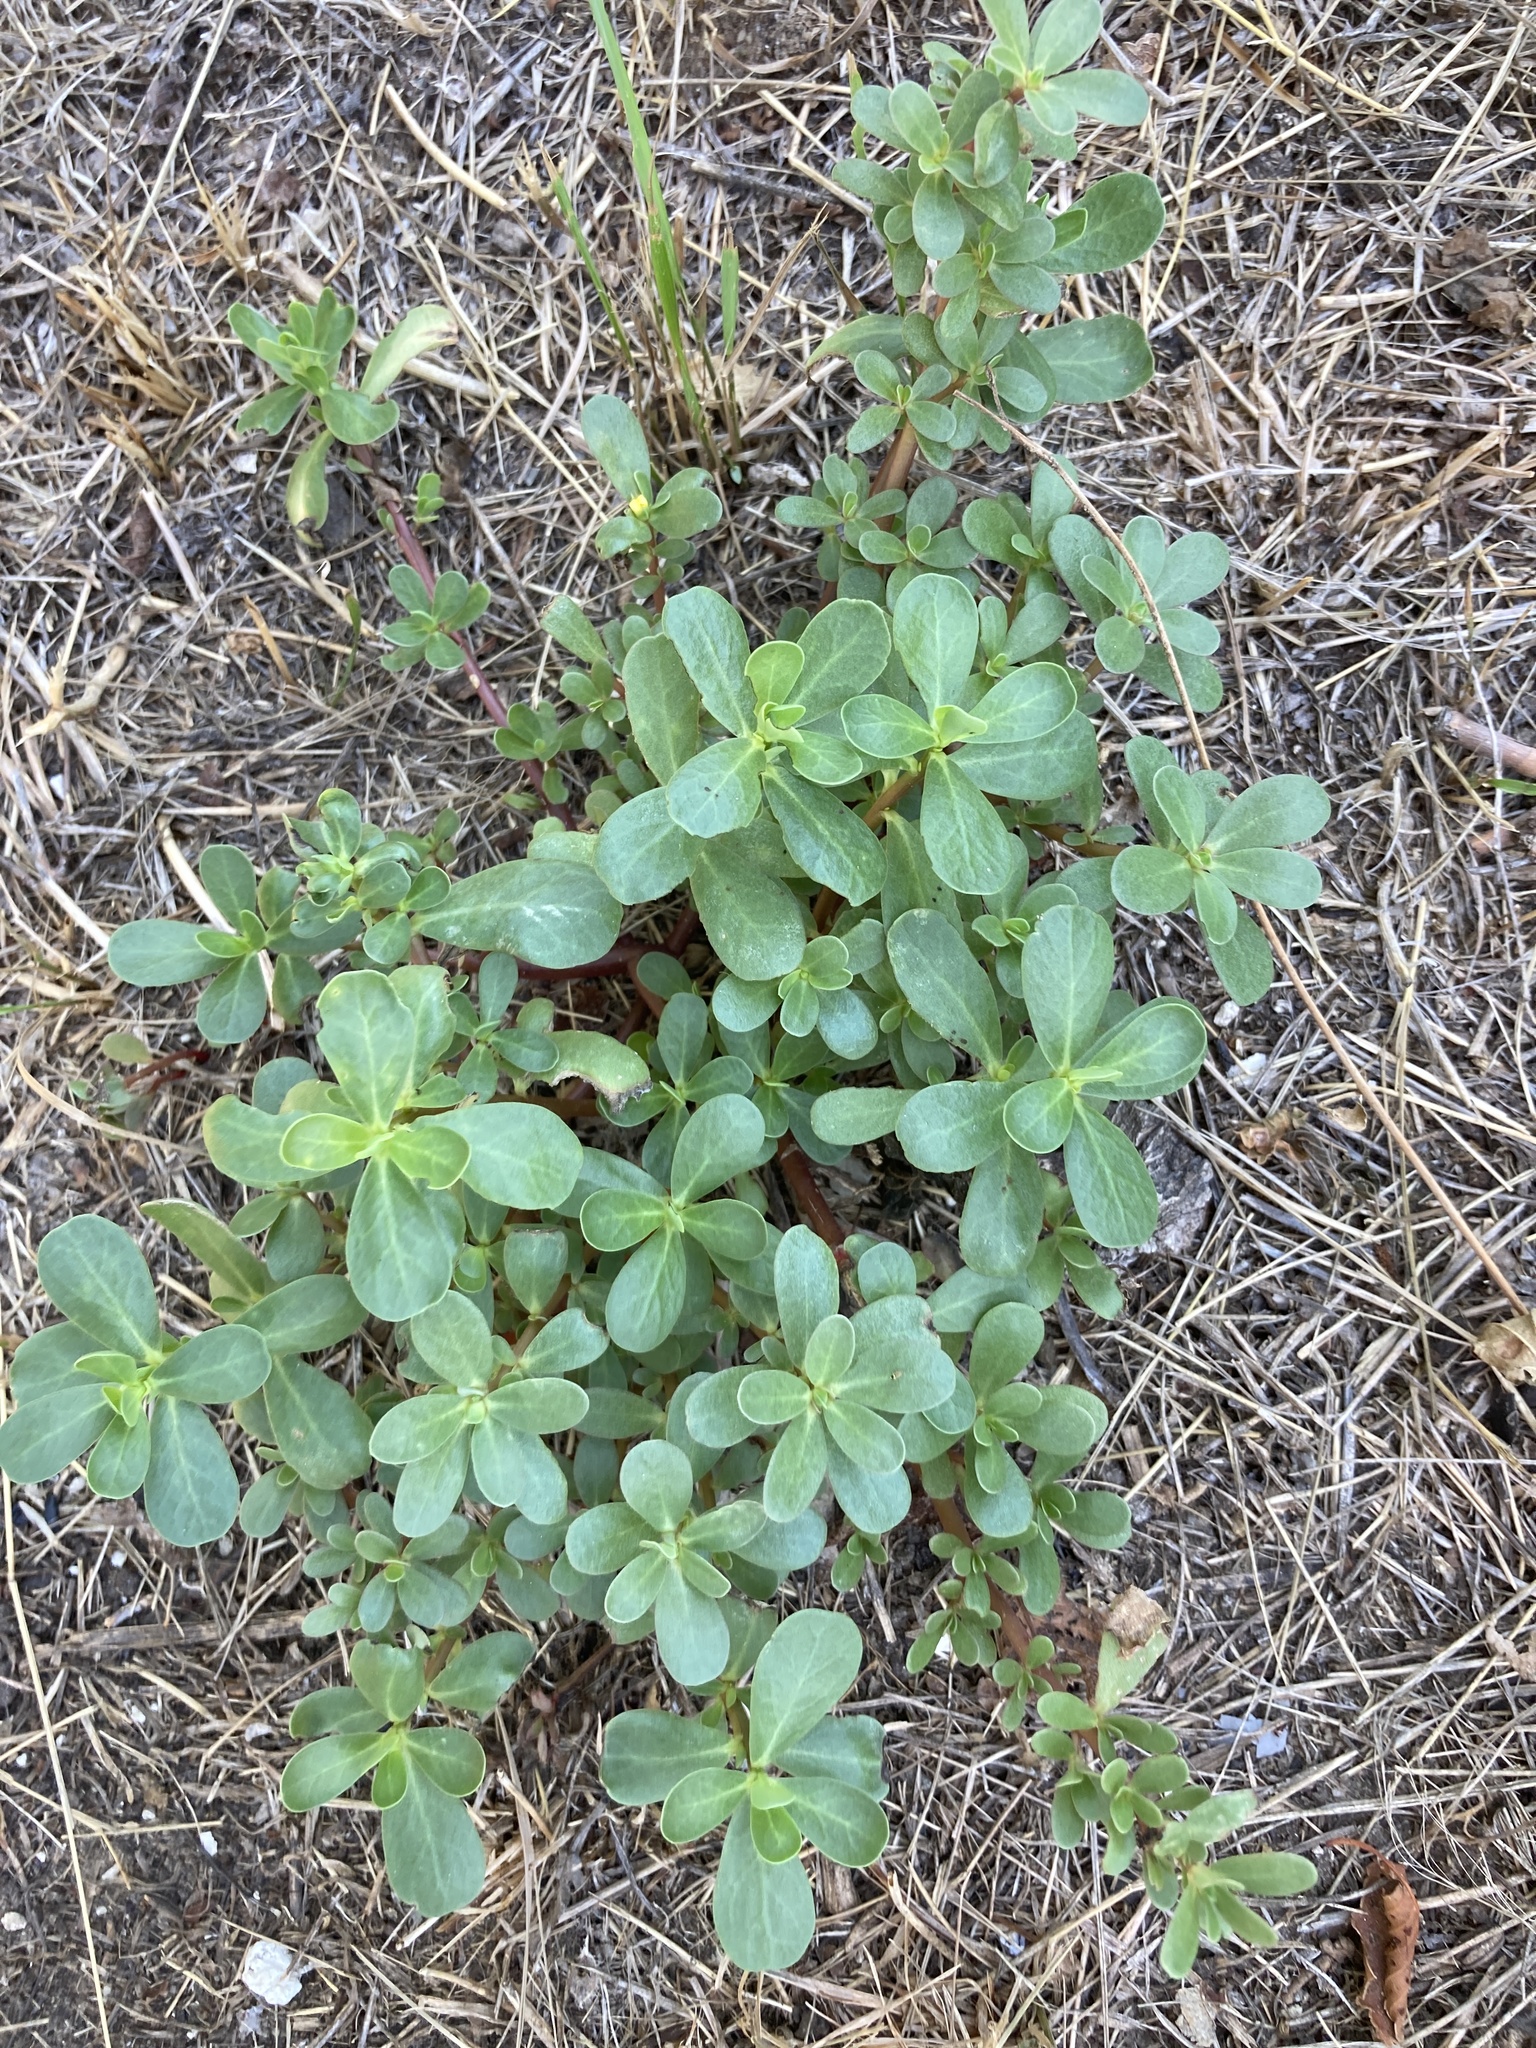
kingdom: Plantae
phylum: Tracheophyta
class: Magnoliopsida
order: Caryophyllales
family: Portulacaceae
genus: Portulaca
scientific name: Portulaca oleracea
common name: Common purslane
